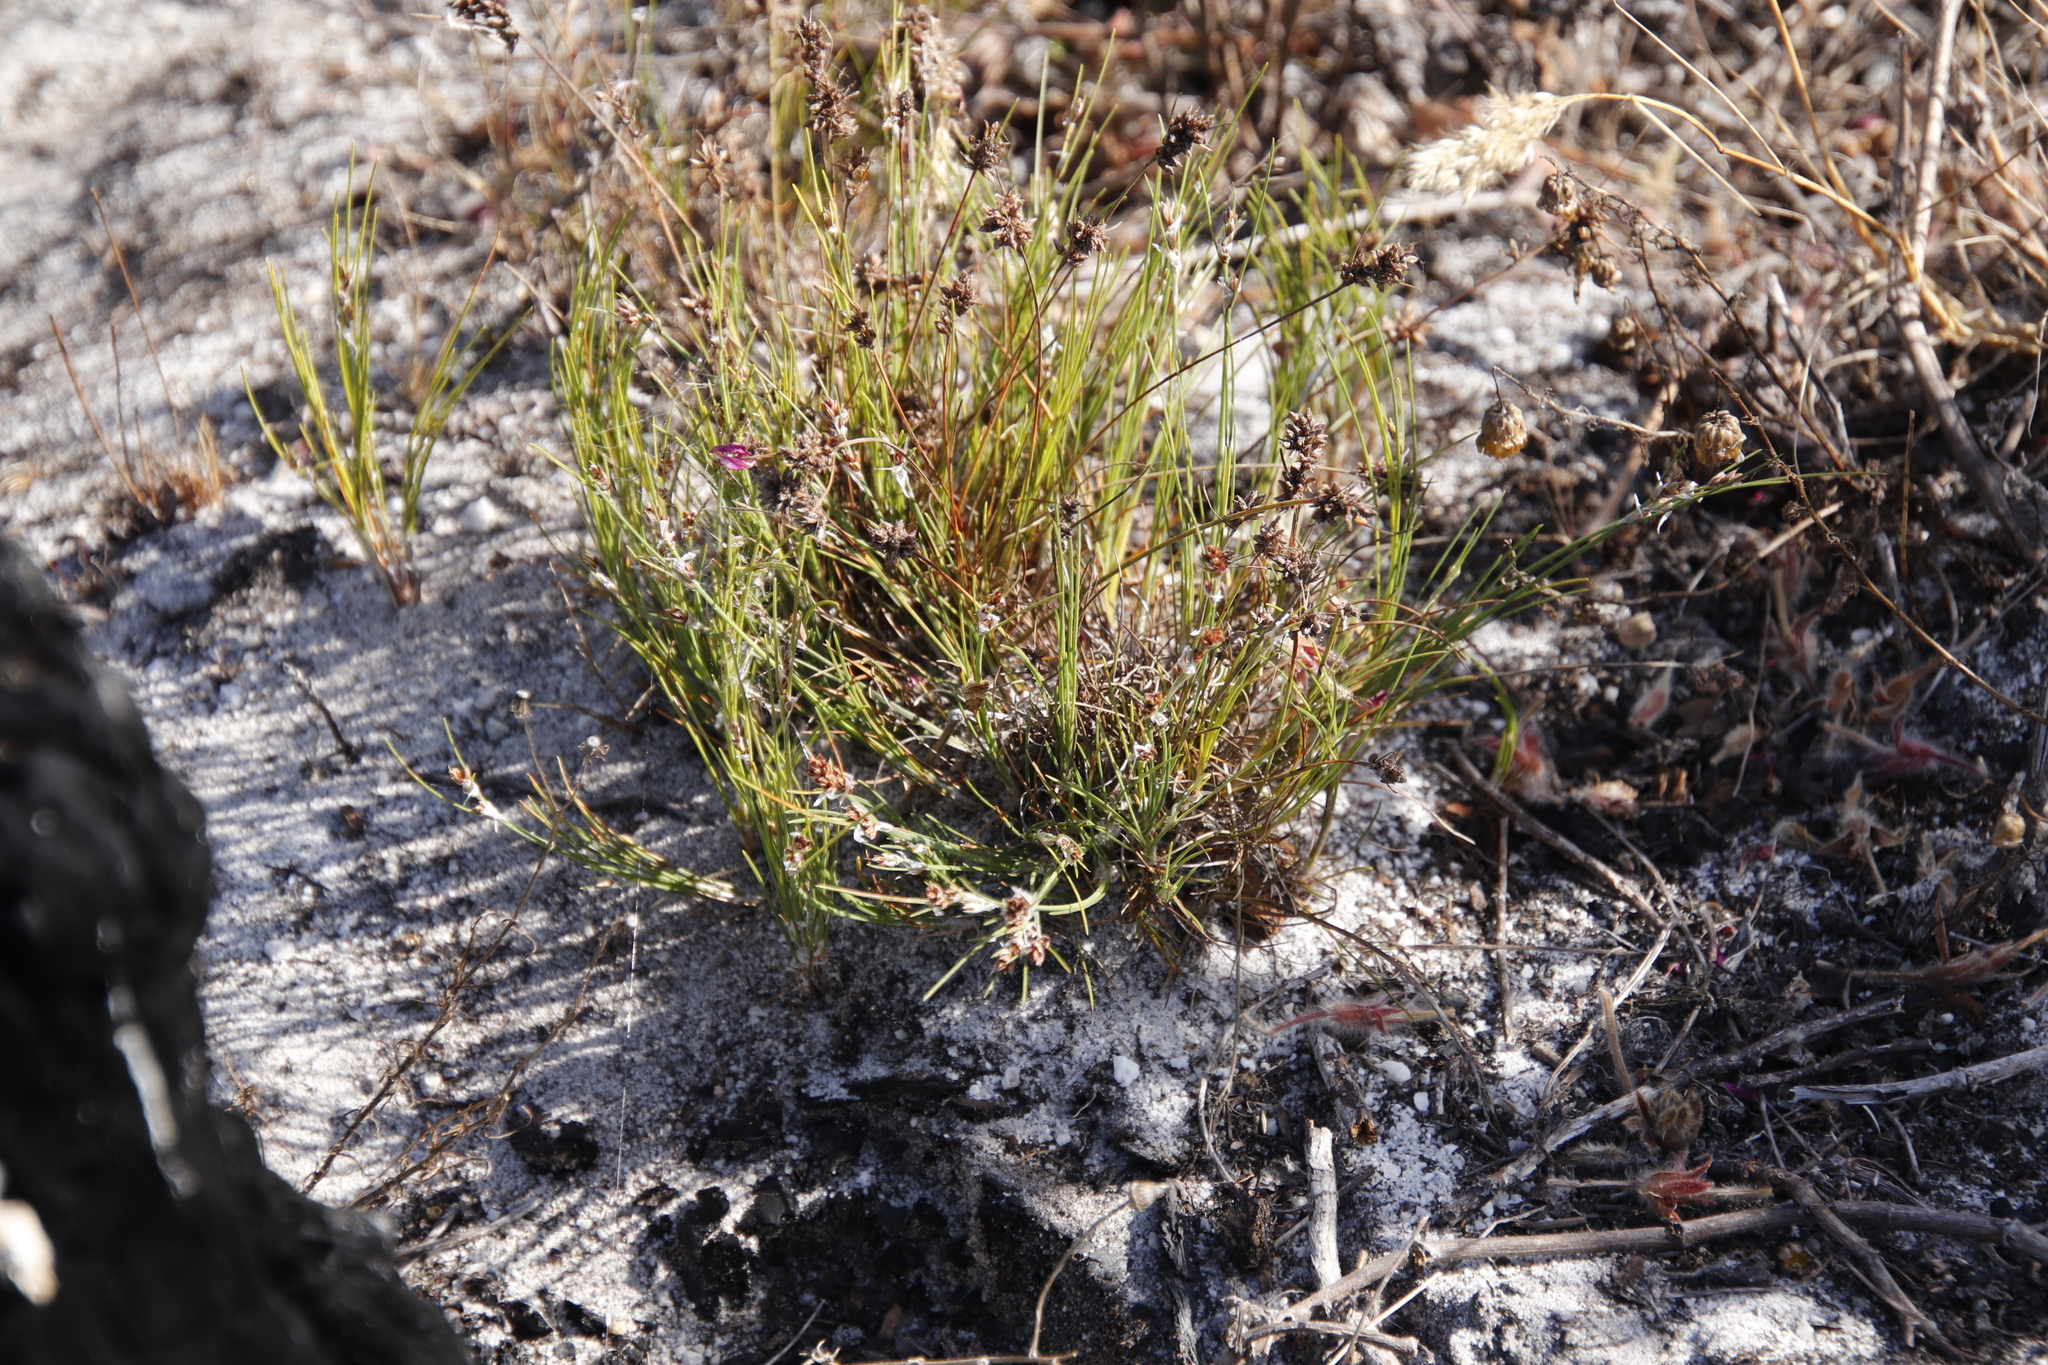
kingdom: Plantae
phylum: Tracheophyta
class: Liliopsida
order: Poales
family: Cyperaceae
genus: Ficinia
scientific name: Ficinia bulbosa
